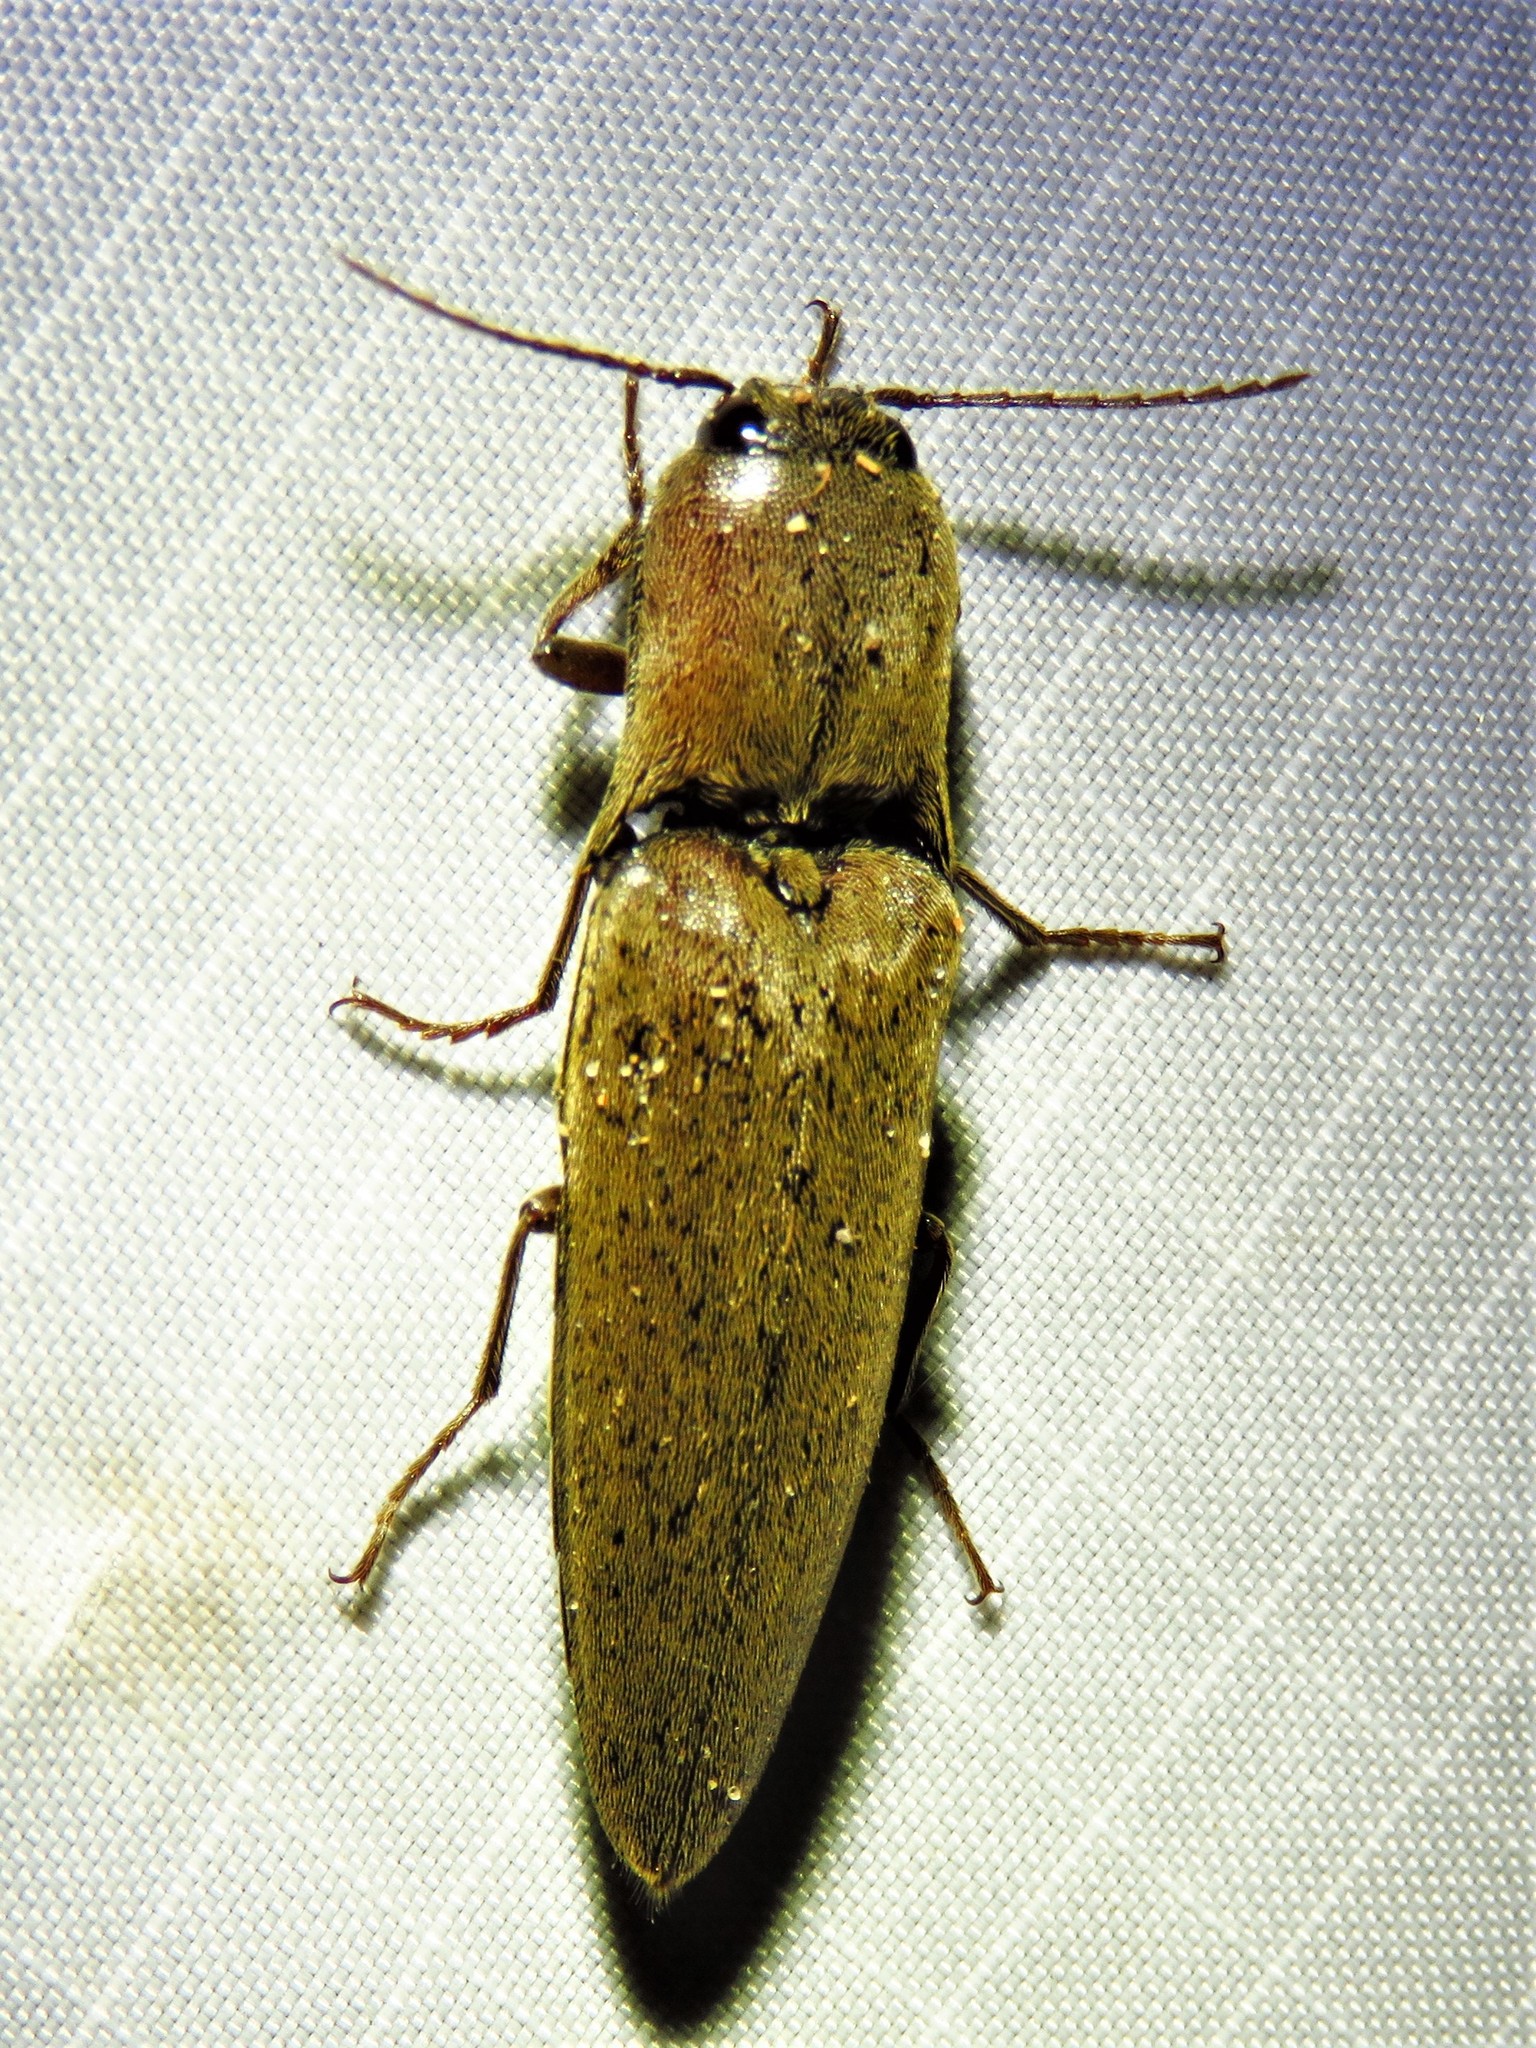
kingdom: Animalia
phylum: Arthropoda
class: Insecta
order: Coleoptera
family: Elateridae
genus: Orthostethus
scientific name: Orthostethus infuscatus
